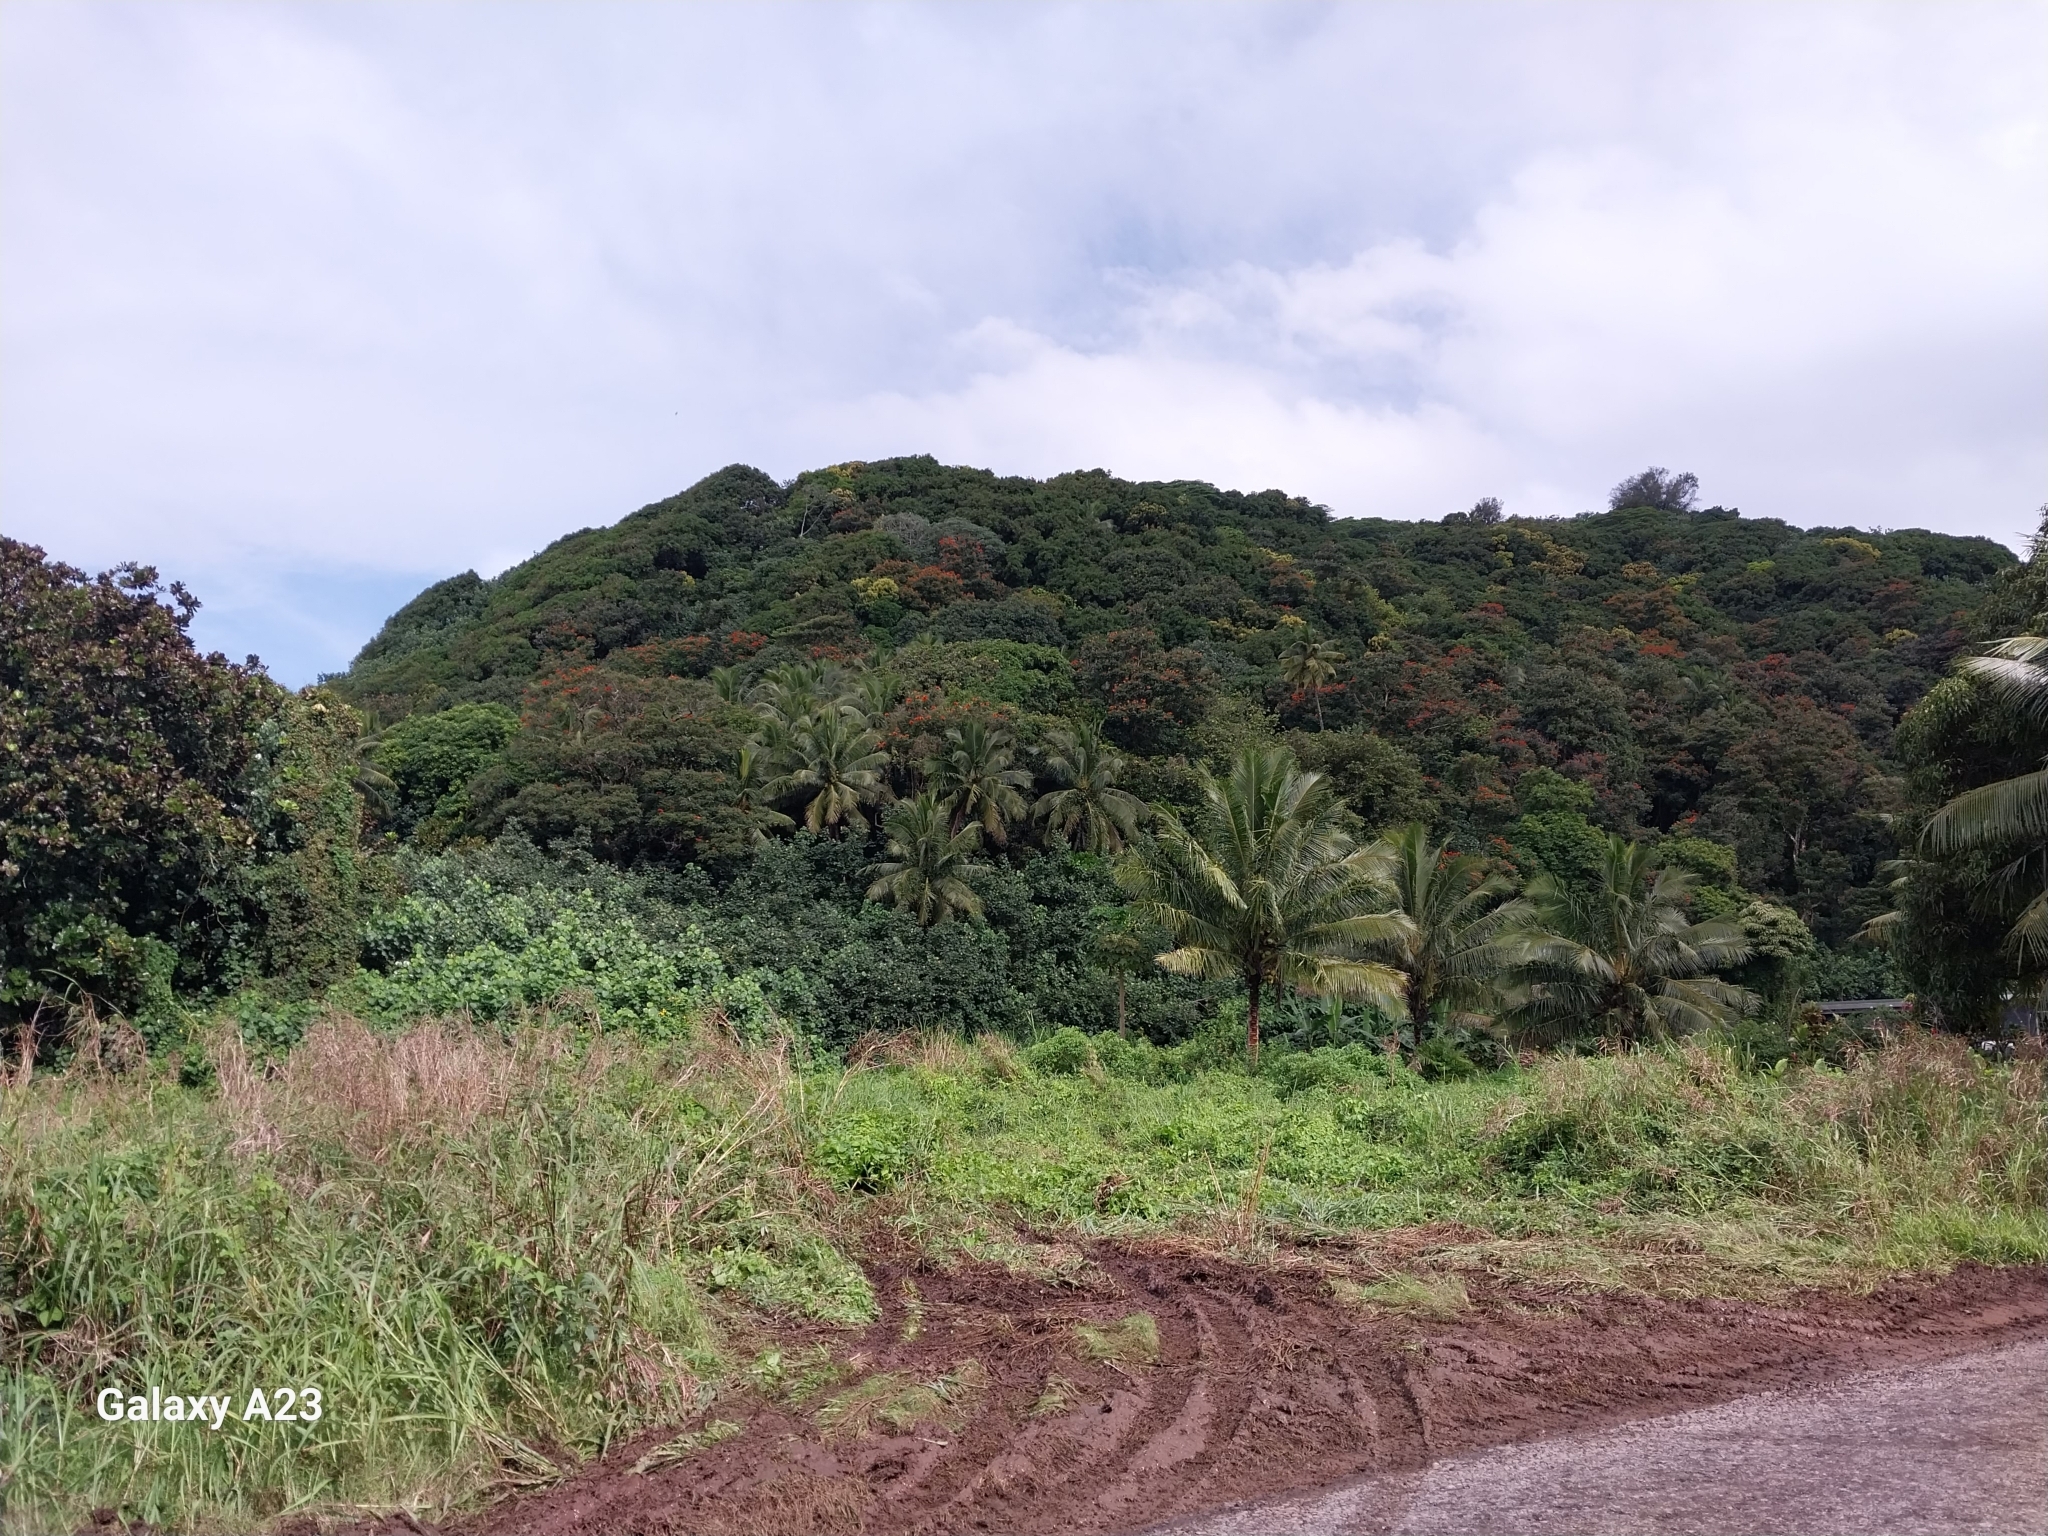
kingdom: Plantae
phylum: Tracheophyta
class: Magnoliopsida
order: Lamiales
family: Bignoniaceae
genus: Spathodea
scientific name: Spathodea campanulata
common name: African tuliptree
